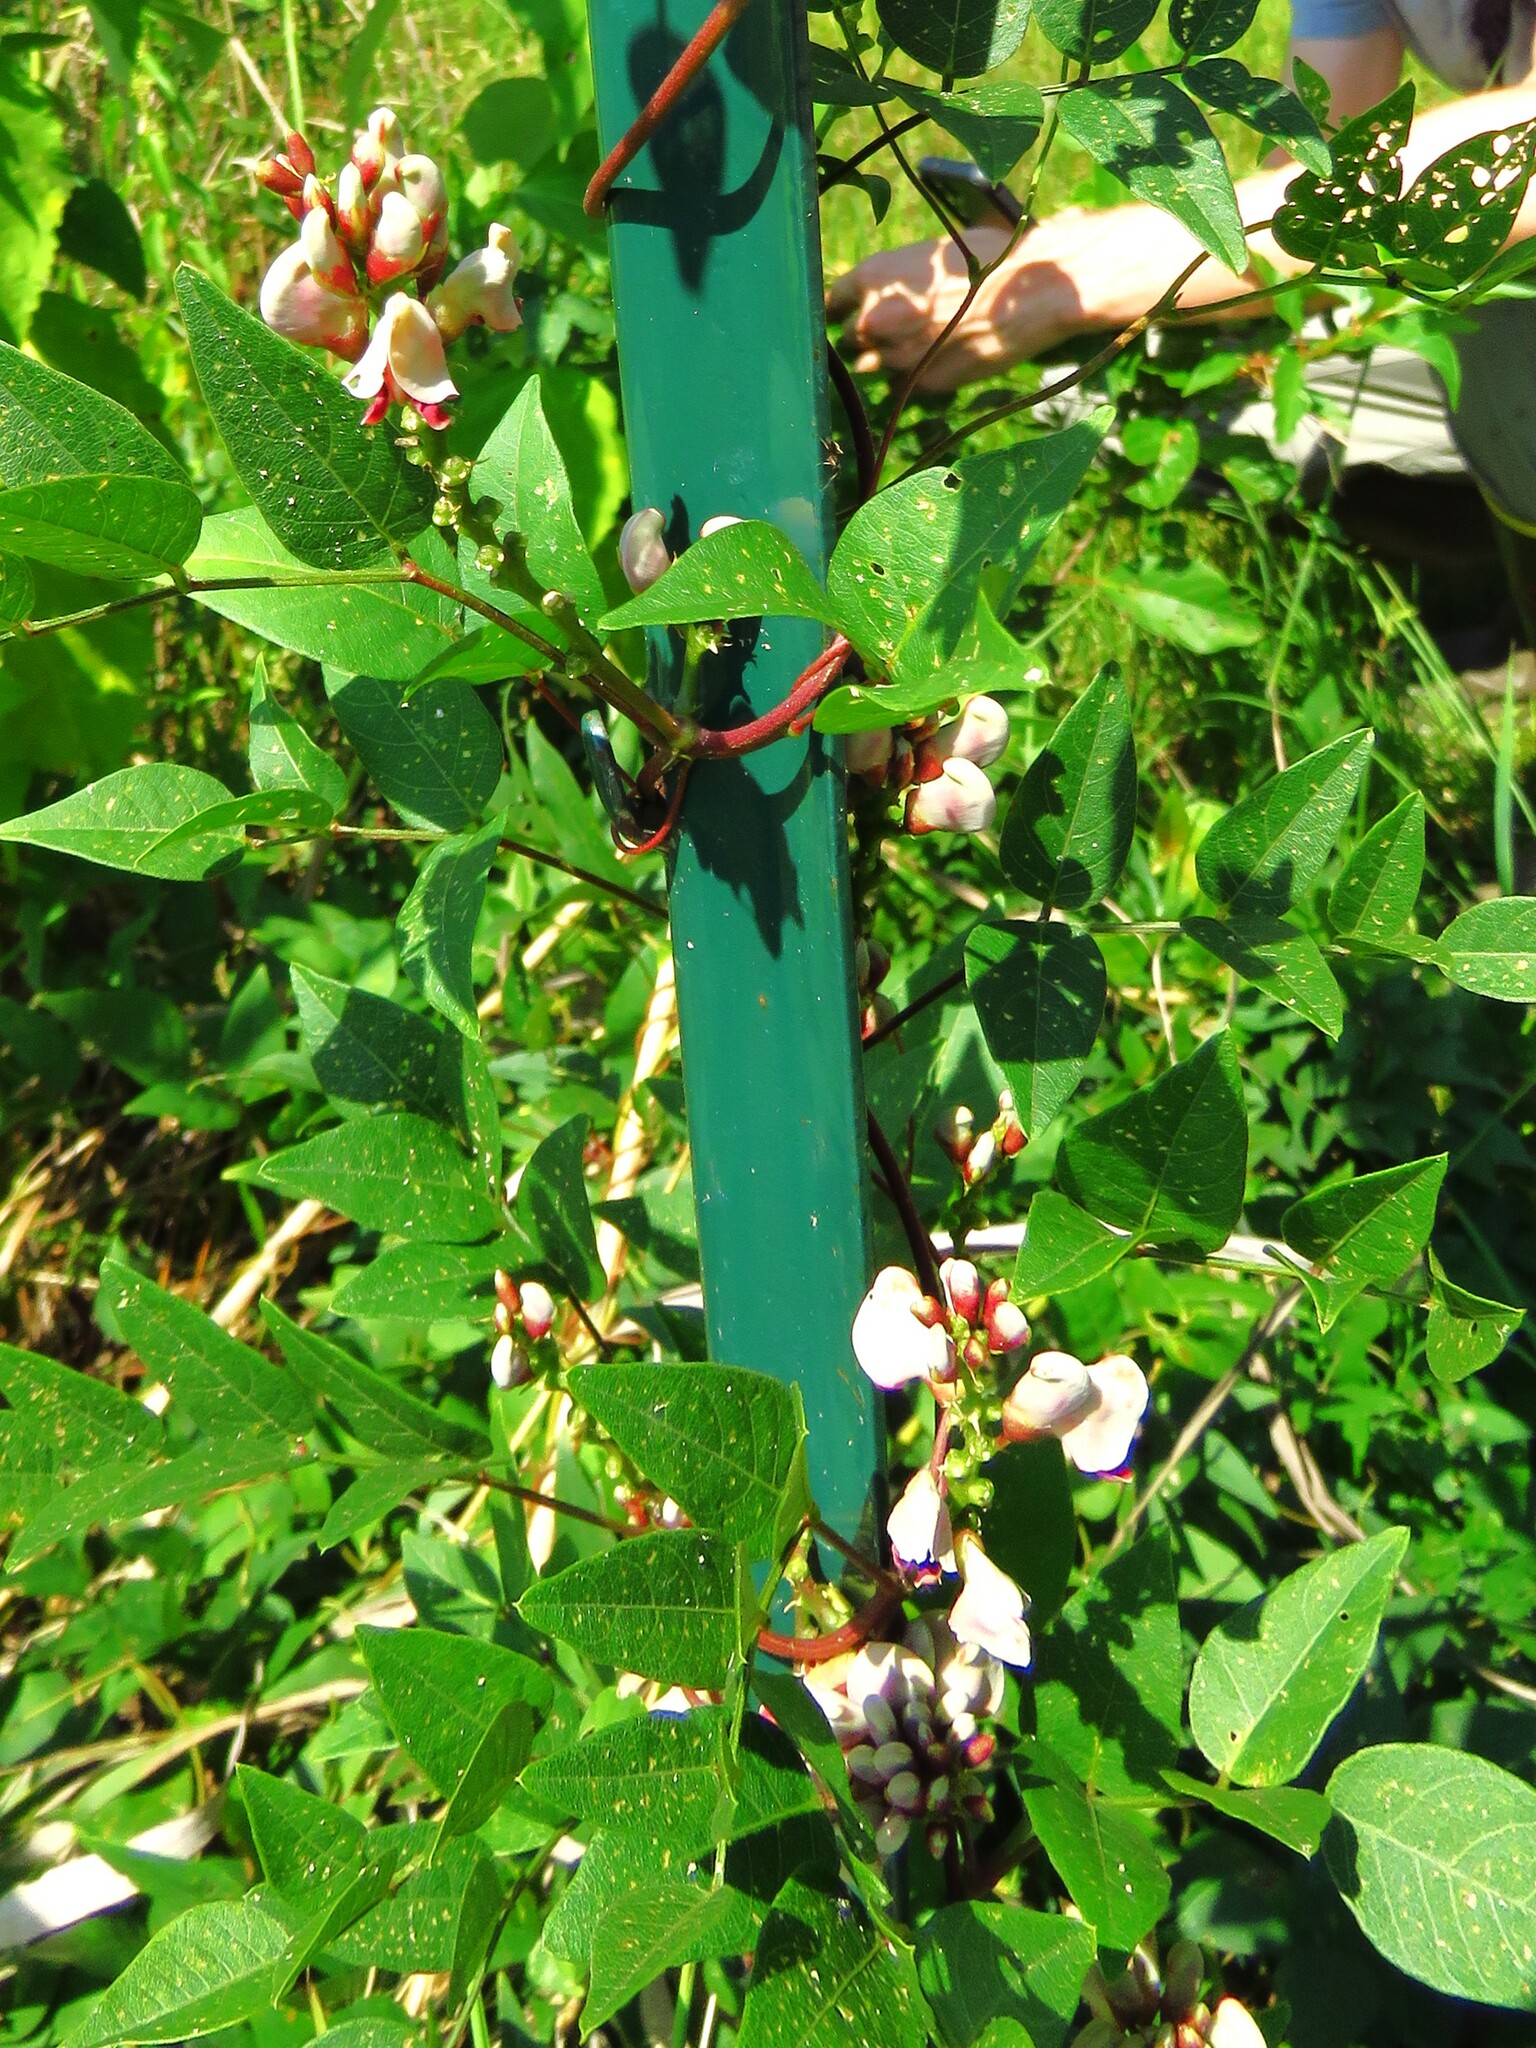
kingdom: Plantae
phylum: Tracheophyta
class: Magnoliopsida
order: Fabales
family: Fabaceae
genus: Apios
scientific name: Apios americana
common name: American potato-bean
